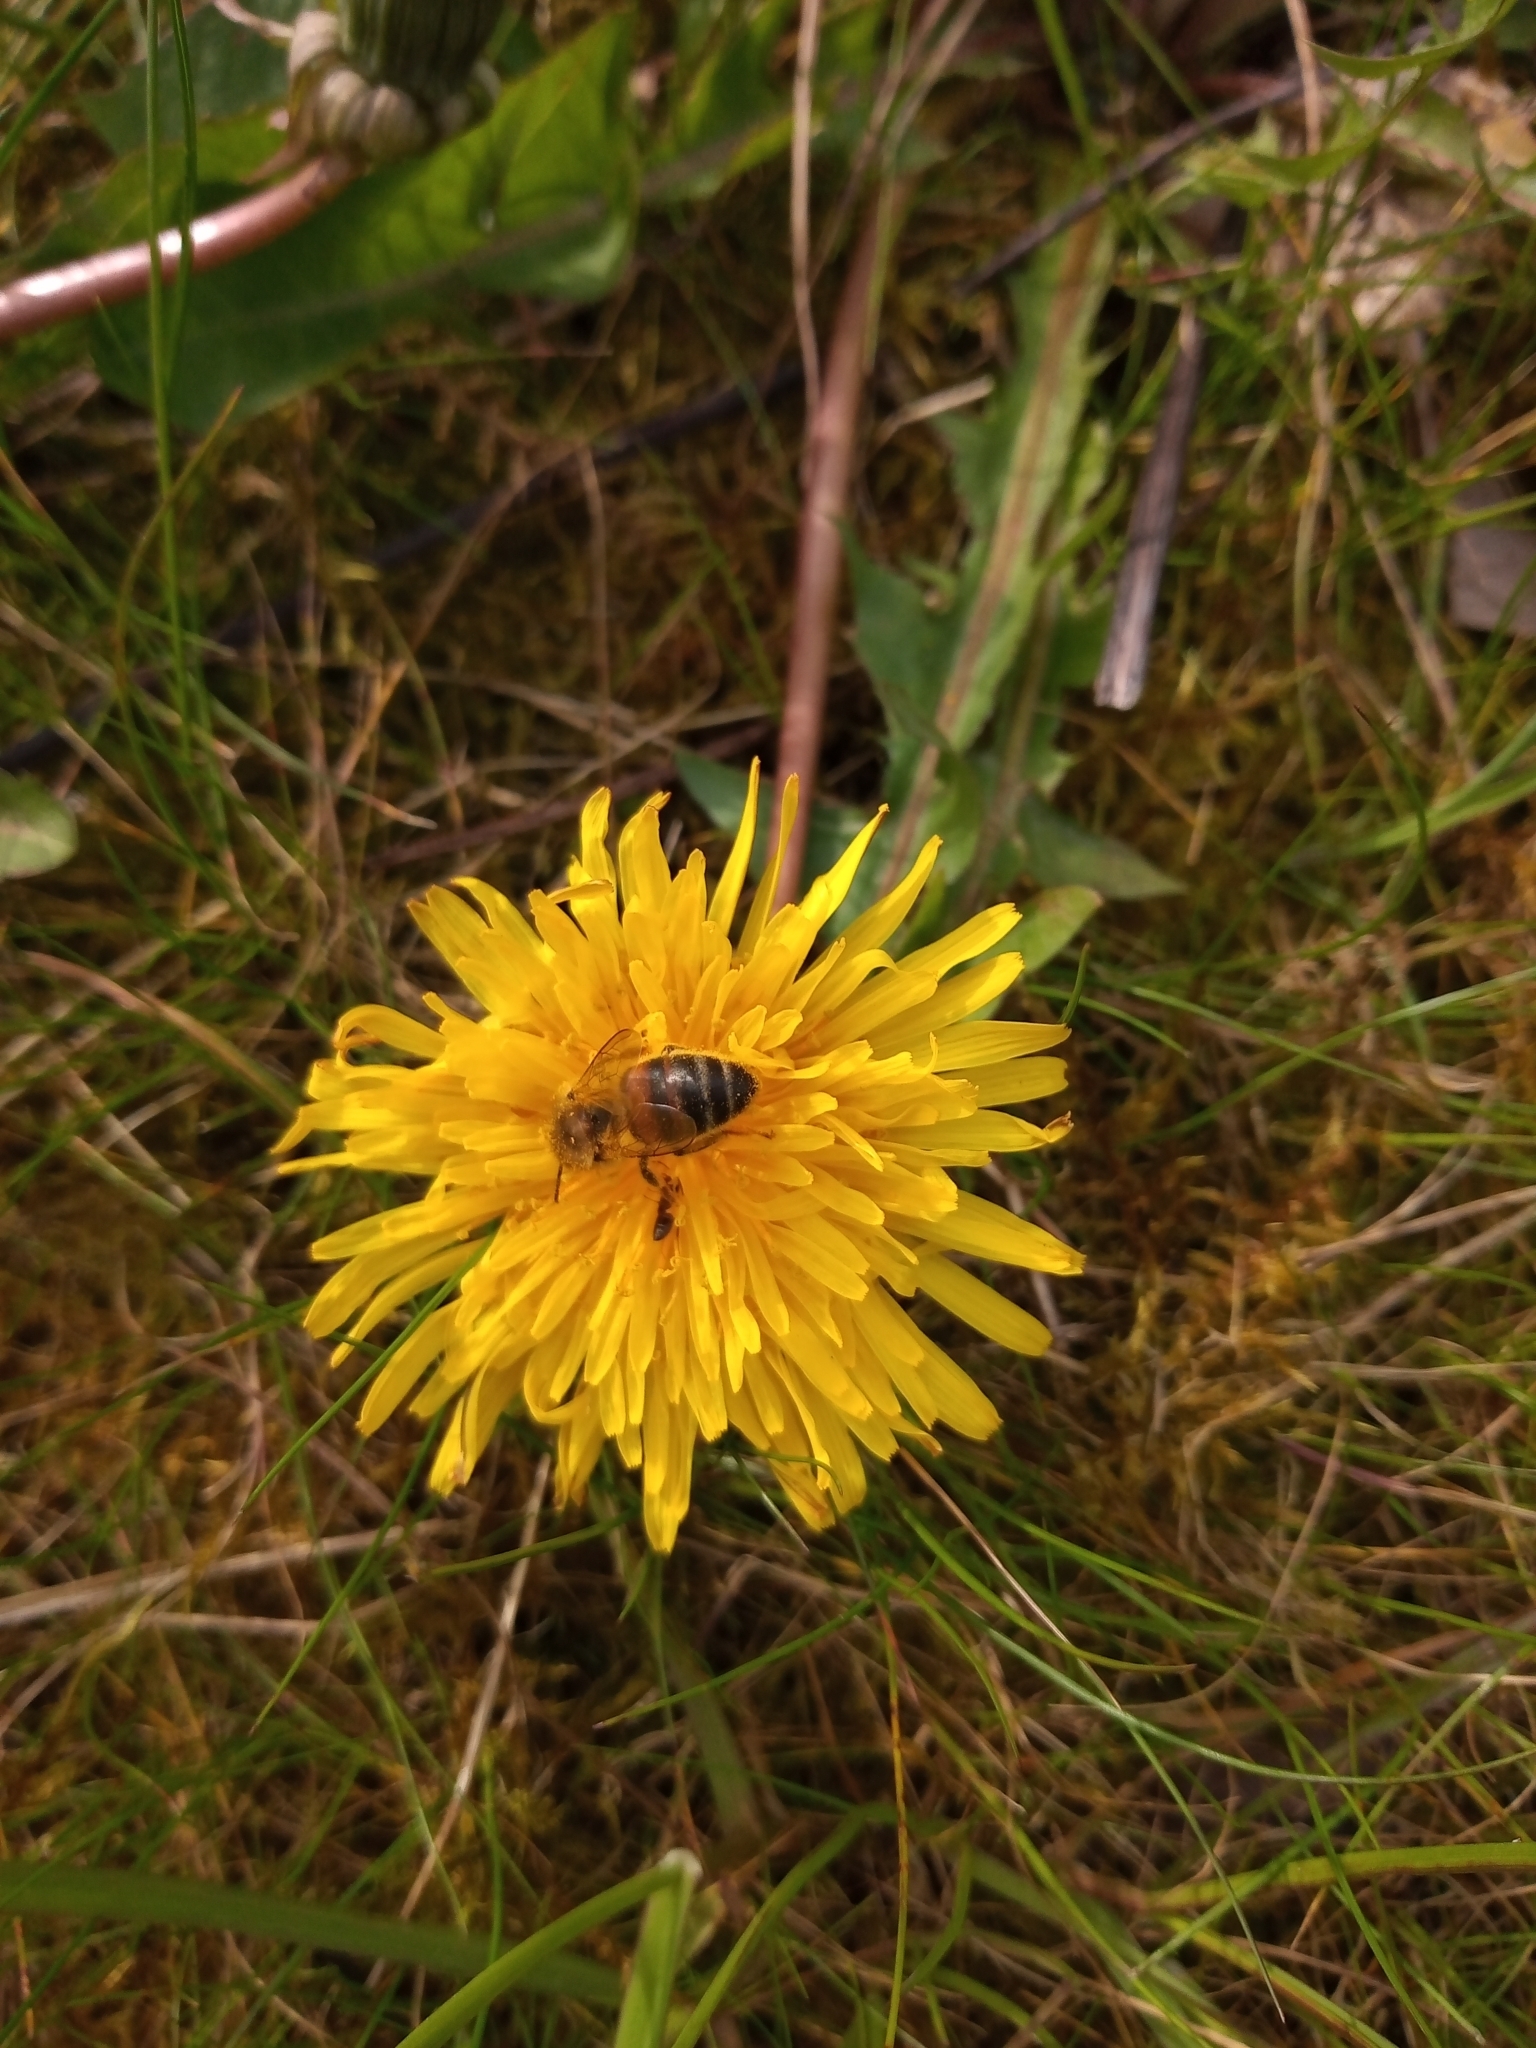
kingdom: Animalia
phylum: Arthropoda
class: Insecta
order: Hymenoptera
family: Apidae
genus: Apis
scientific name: Apis mellifera
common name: Honey bee
